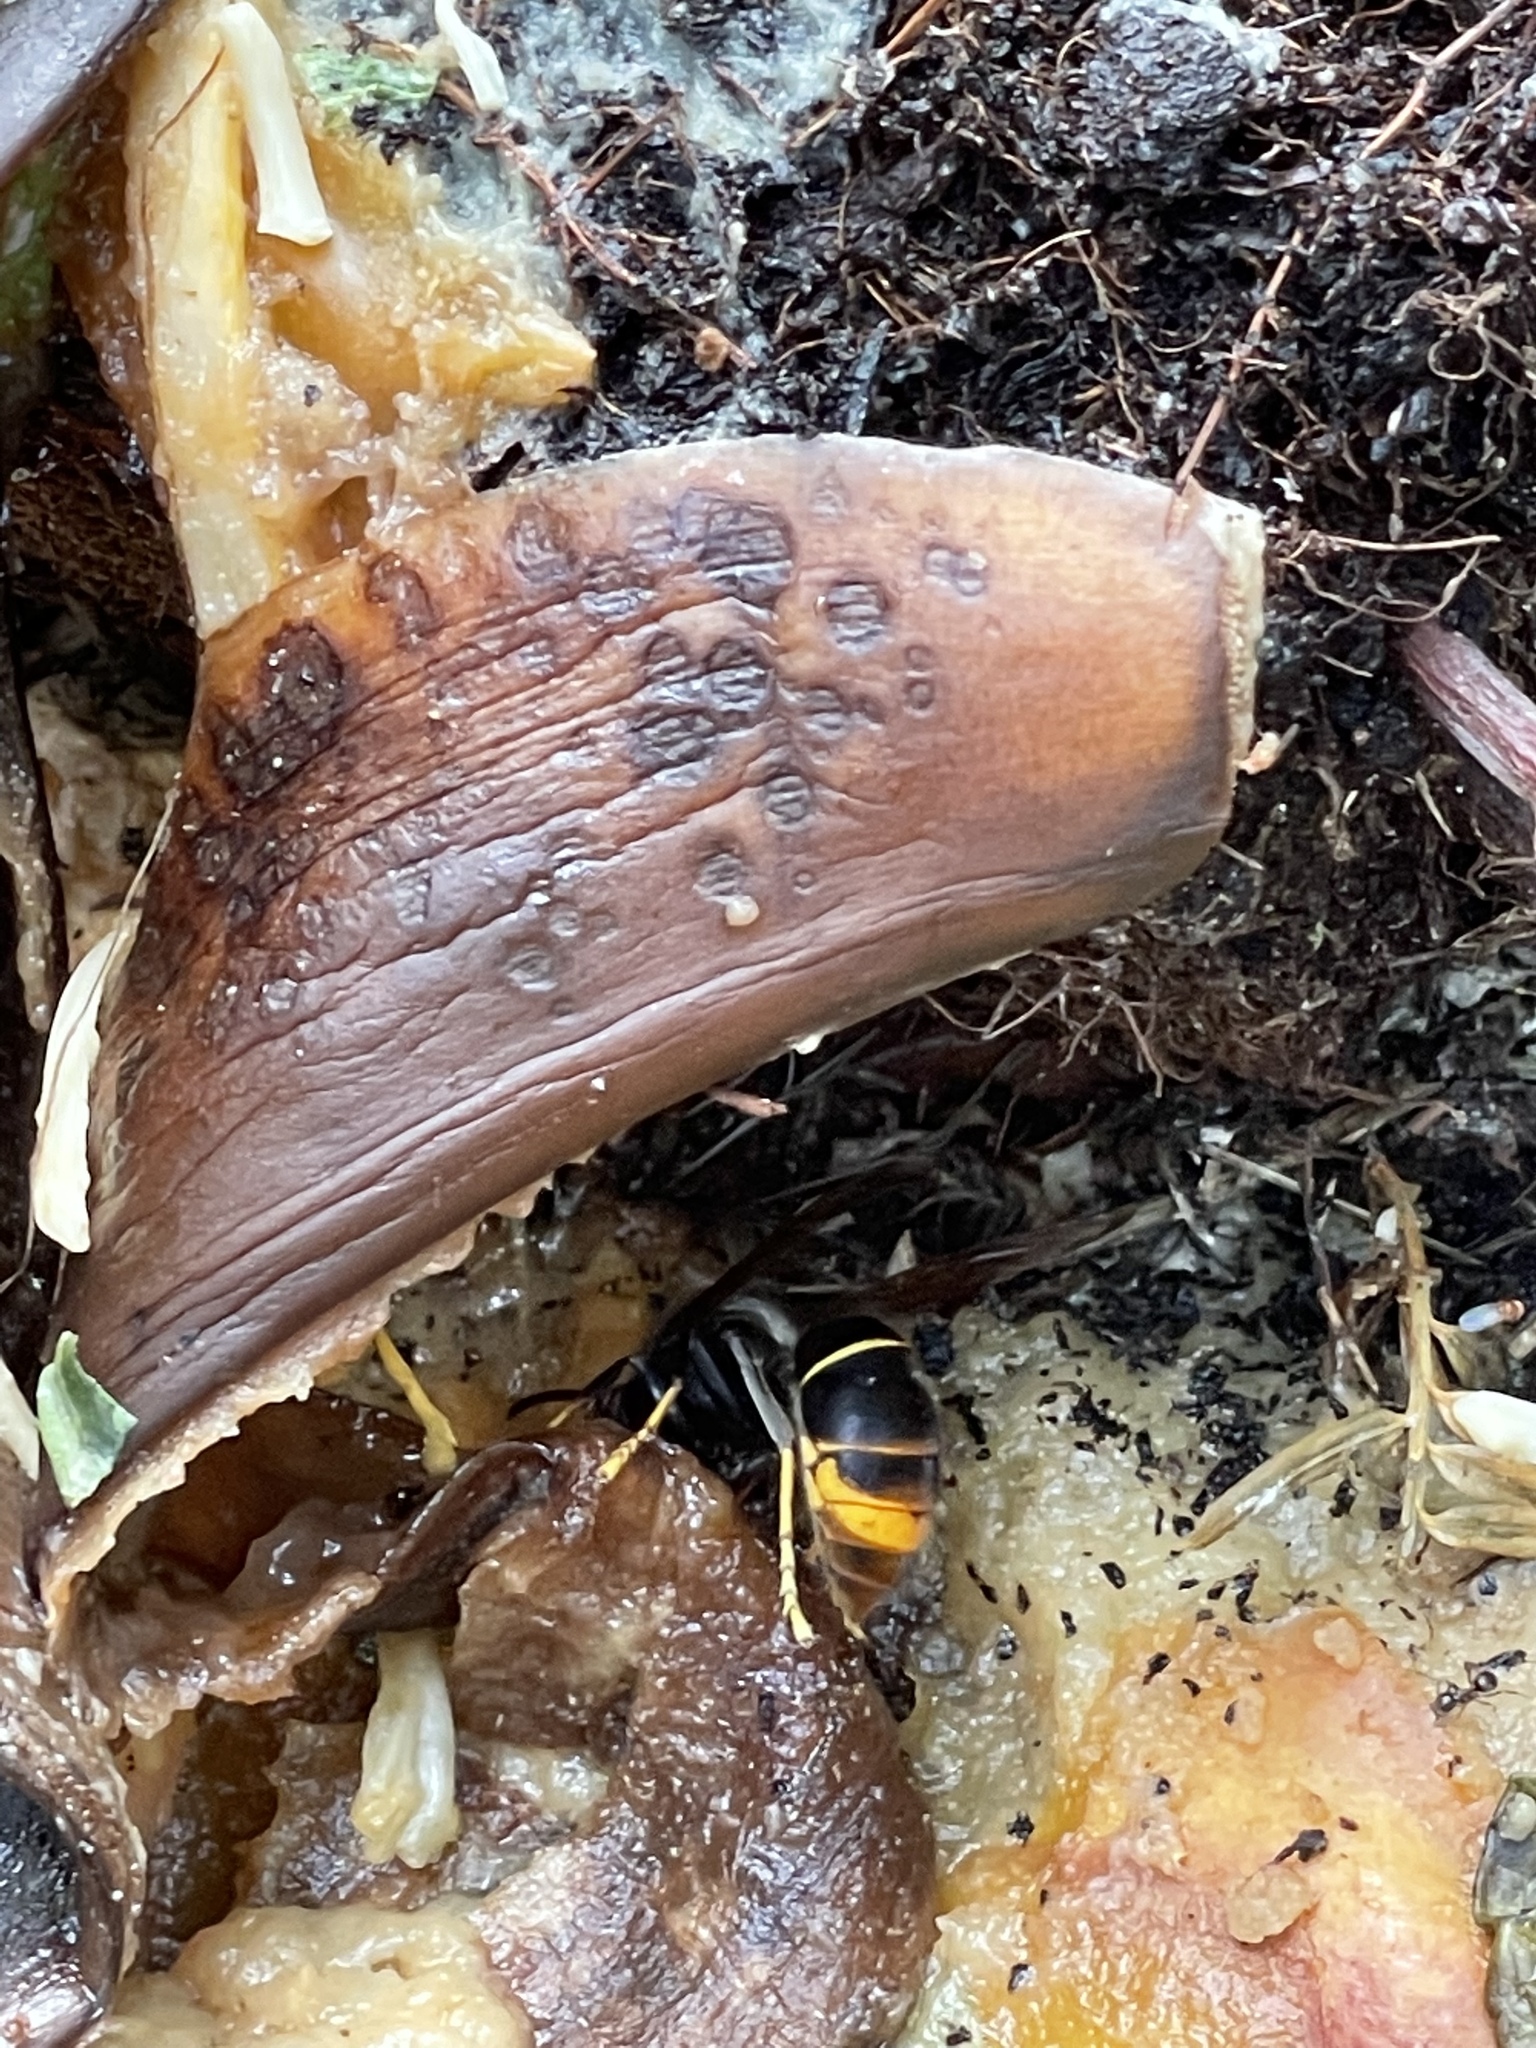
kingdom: Animalia
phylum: Arthropoda
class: Insecta
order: Hymenoptera
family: Vespidae
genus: Vespa
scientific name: Vespa velutina
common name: Asian hornet
